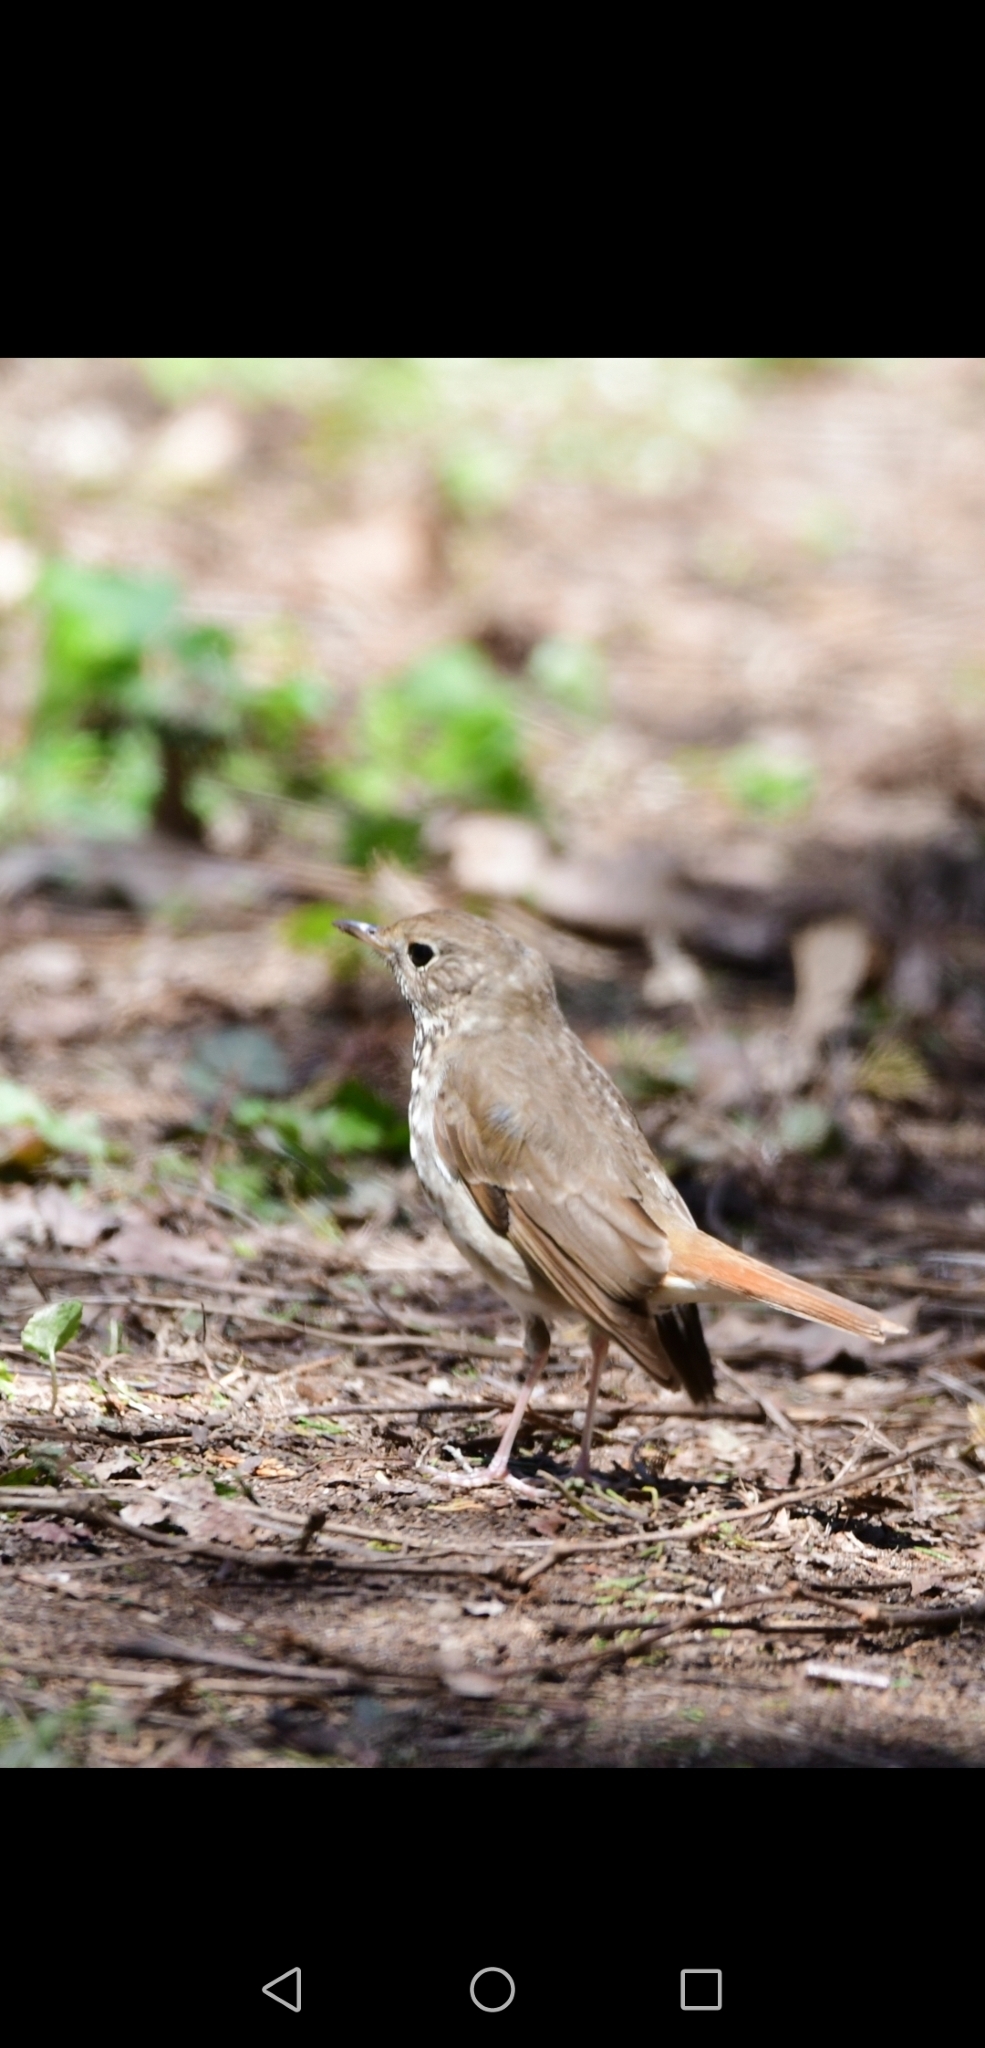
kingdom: Animalia
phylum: Chordata
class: Aves
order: Passeriformes
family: Turdidae
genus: Catharus
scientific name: Catharus guttatus
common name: Hermit thrush
